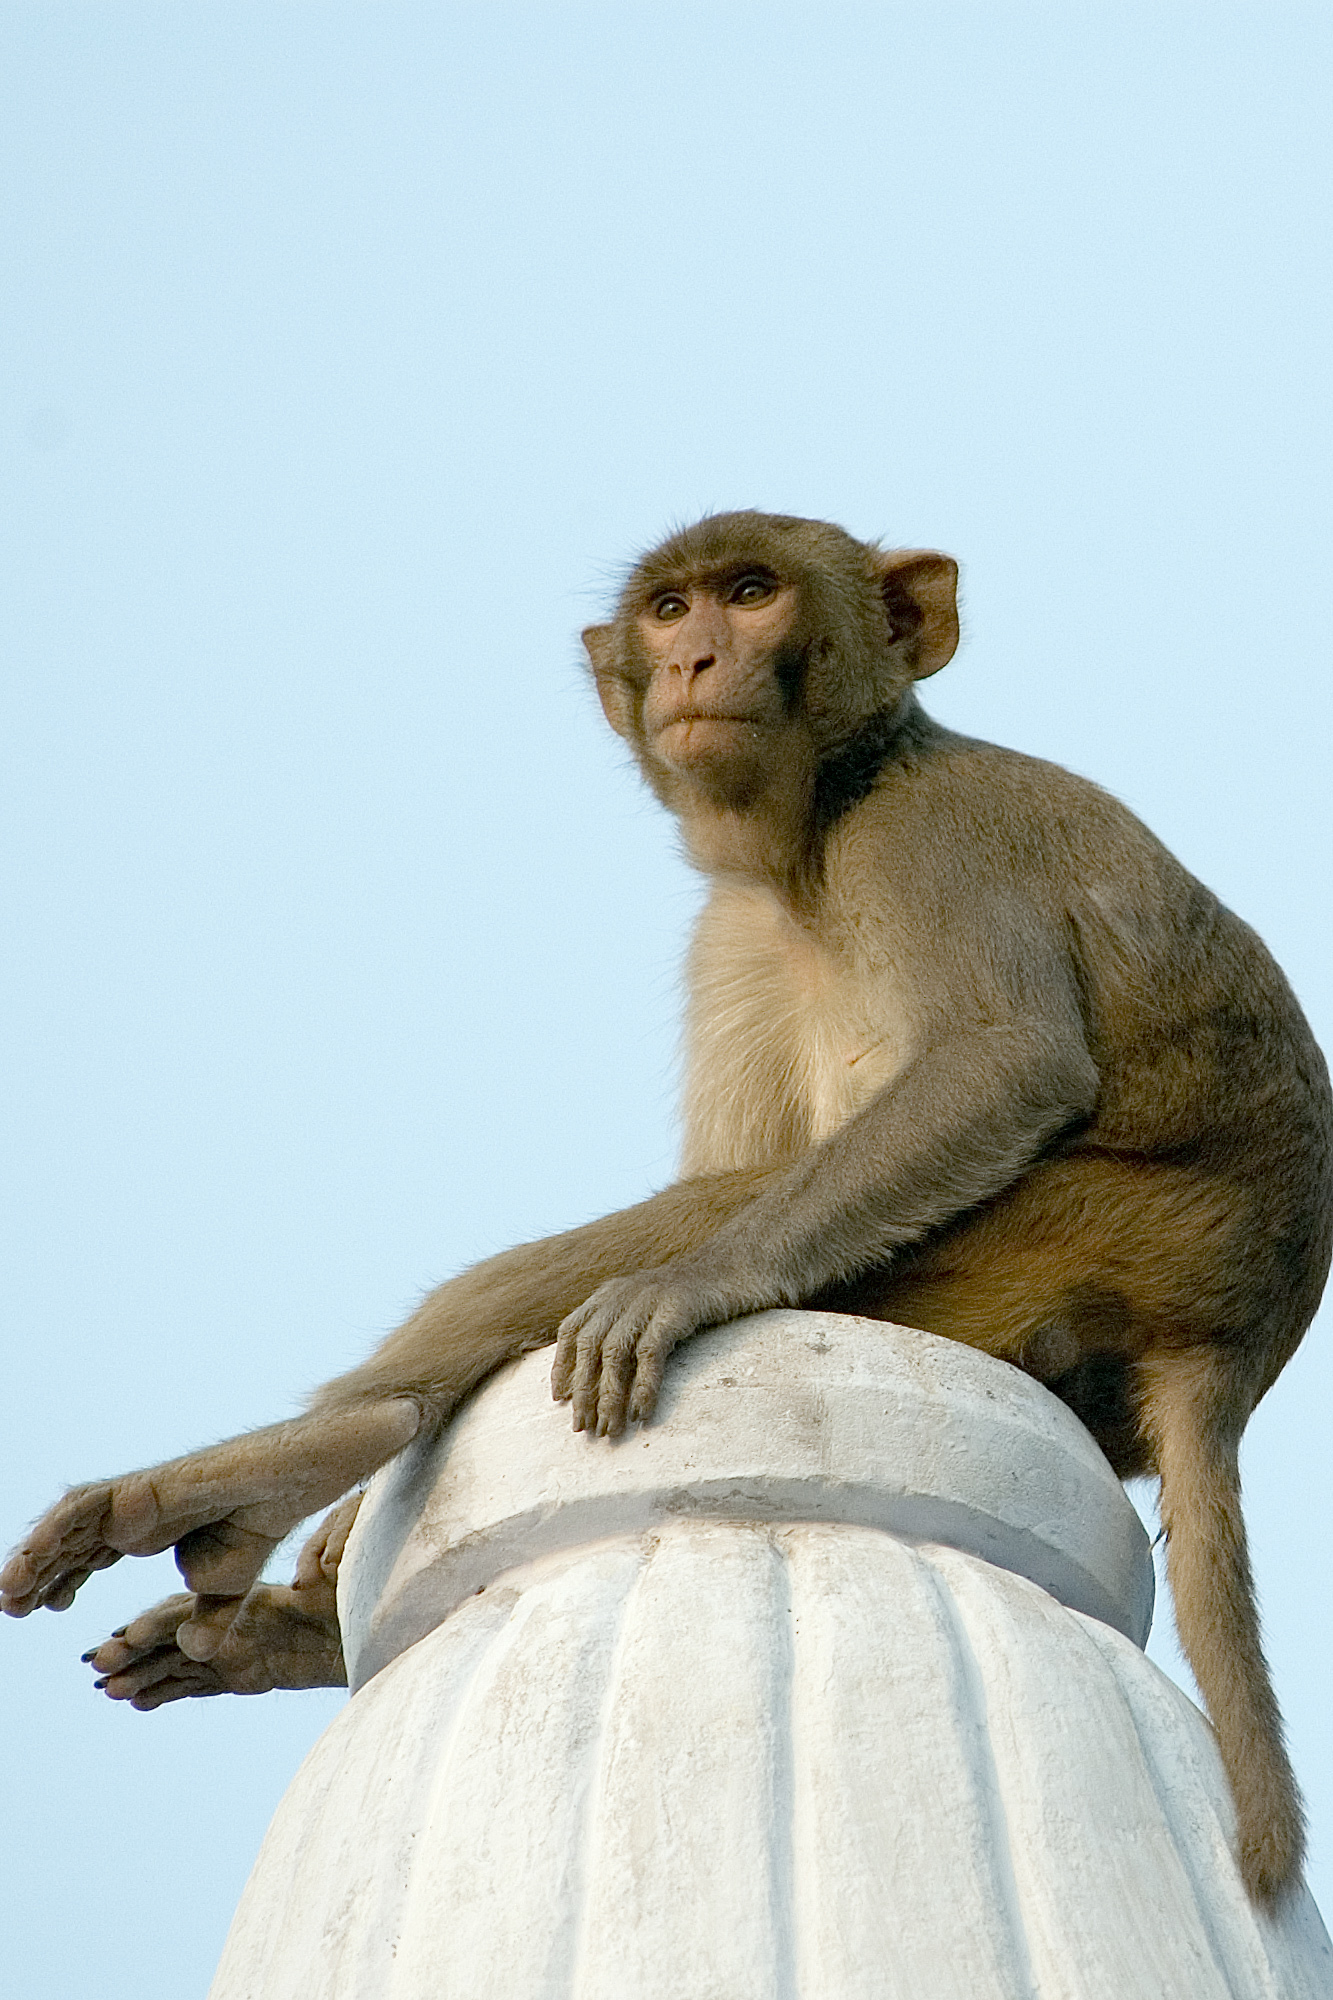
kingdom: Animalia
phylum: Chordata
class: Mammalia
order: Primates
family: Cercopithecidae
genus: Macaca
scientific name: Macaca mulatta
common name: Rhesus monkey
